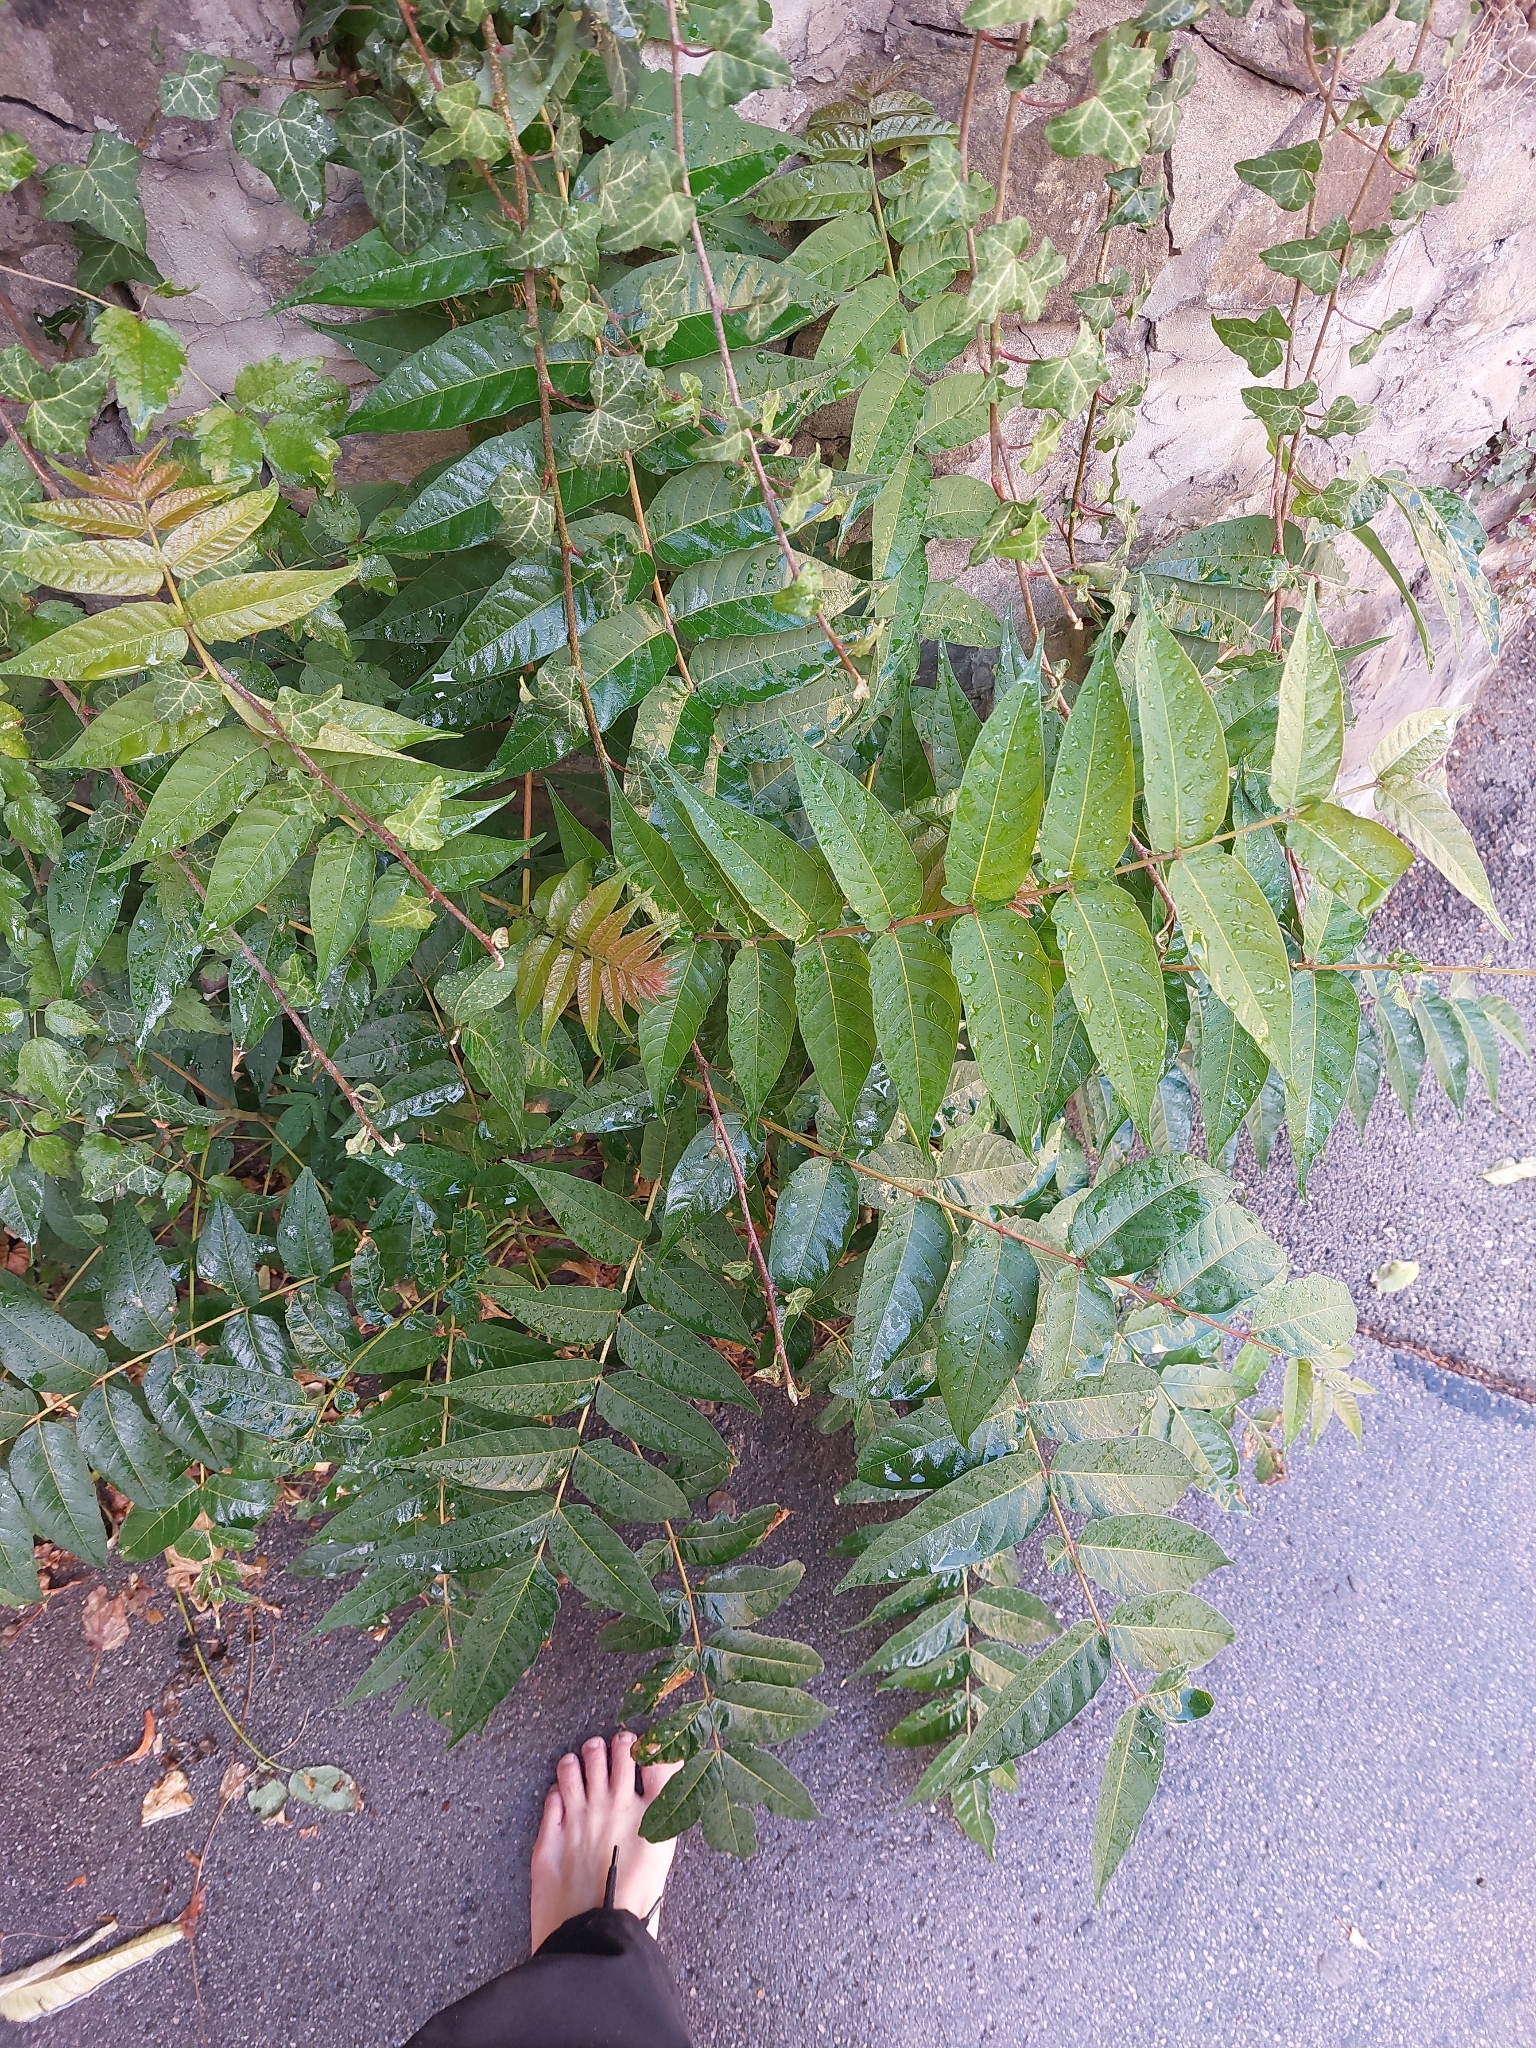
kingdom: Plantae
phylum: Tracheophyta
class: Magnoliopsida
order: Sapindales
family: Simaroubaceae
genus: Ailanthus
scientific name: Ailanthus altissima
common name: Tree-of-heaven
